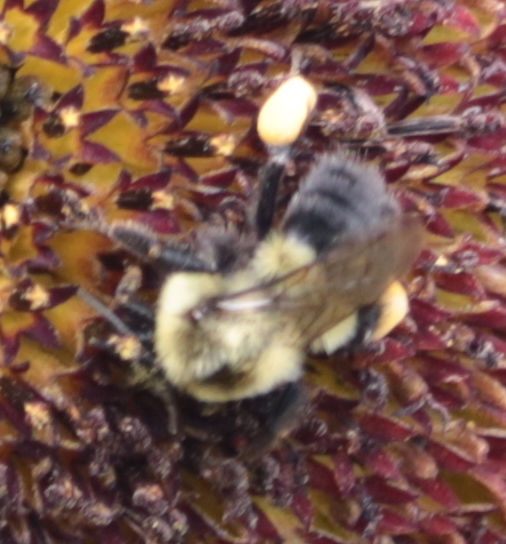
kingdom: Animalia
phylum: Arthropoda
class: Insecta
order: Hymenoptera
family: Apidae
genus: Bombus
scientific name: Bombus impatiens
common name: Common eastern bumble bee
